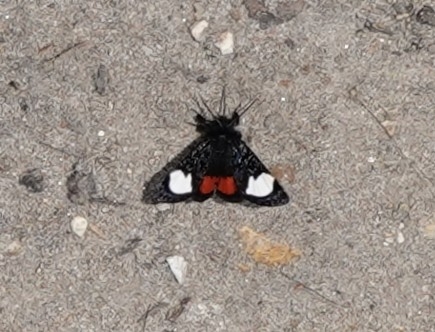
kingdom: Animalia
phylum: Arthropoda
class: Insecta
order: Lepidoptera
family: Noctuidae
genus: Psychomorpha
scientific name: Psychomorpha epimenis
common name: Grapevine epimenis moth
